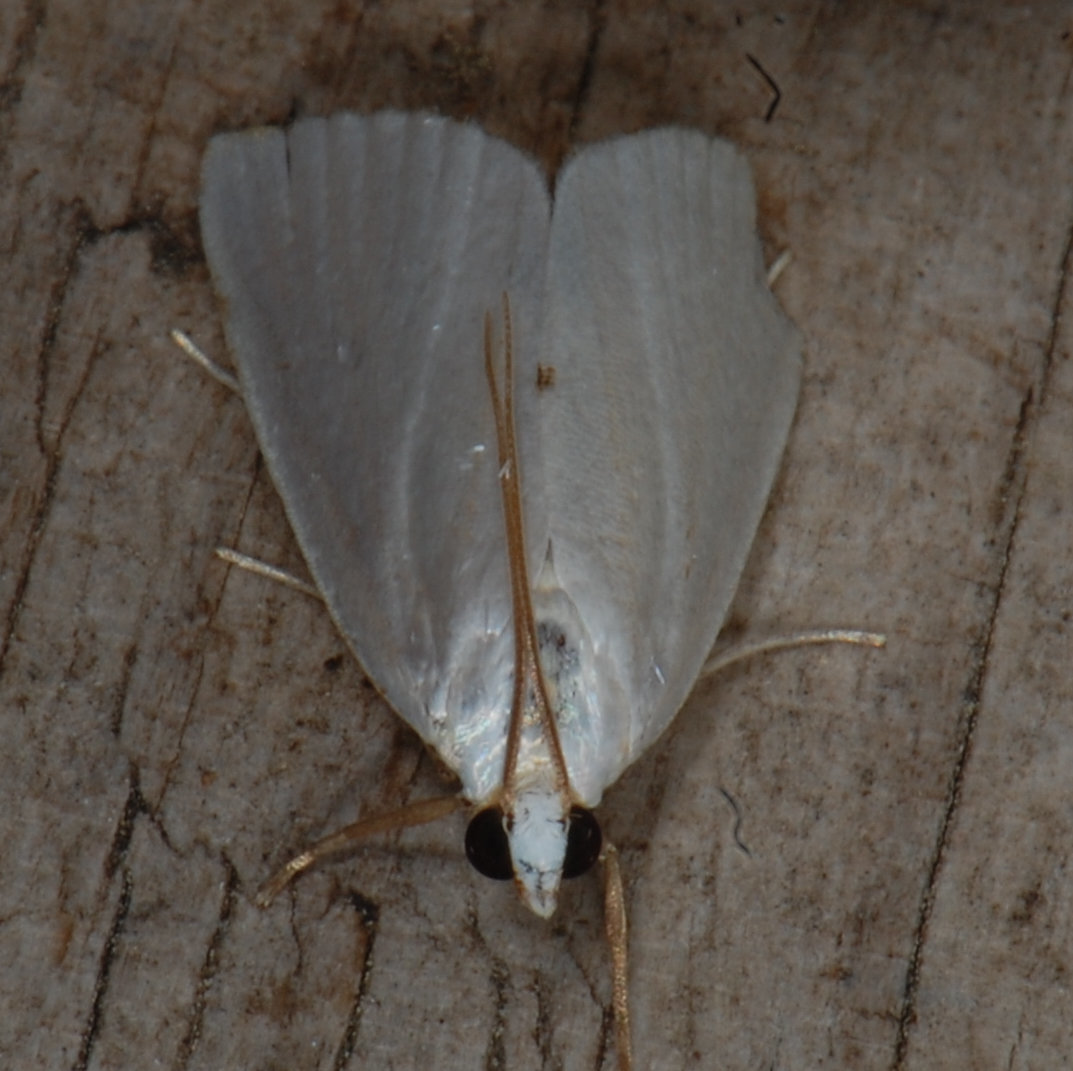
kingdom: Animalia
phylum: Arthropoda
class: Insecta
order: Lepidoptera
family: Crambidae
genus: Argyria
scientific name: Argyria nivalis
